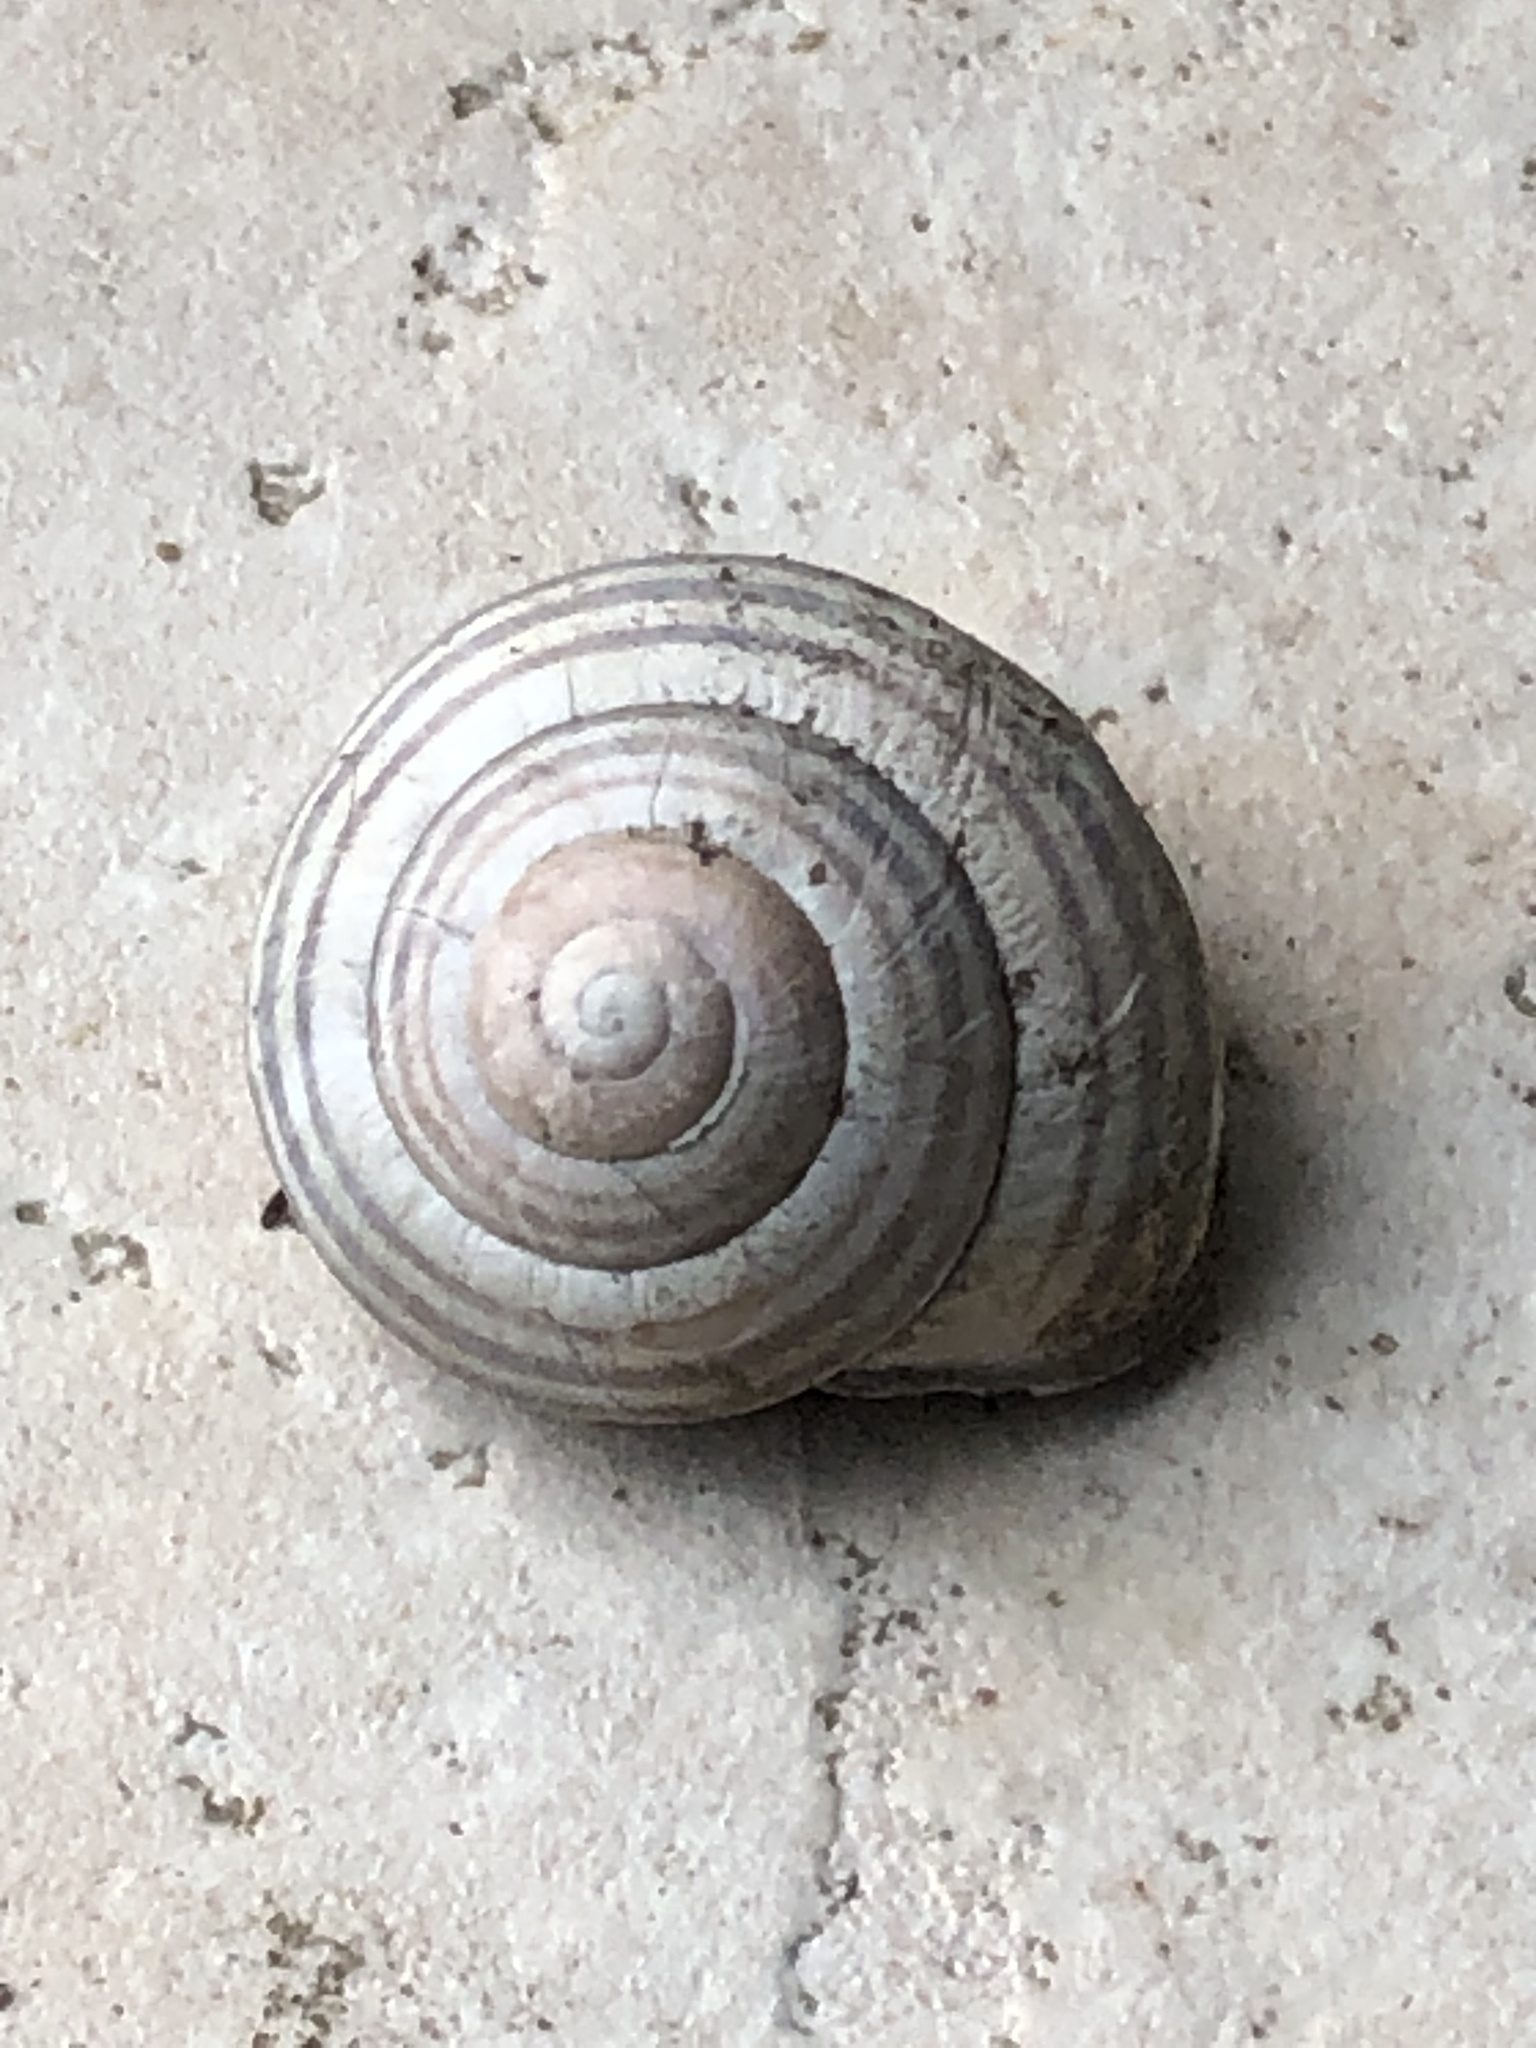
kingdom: Animalia
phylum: Mollusca
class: Gastropoda
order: Stylommatophora
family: Helicidae
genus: Cepaea
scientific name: Cepaea nemoralis
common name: Grovesnail
